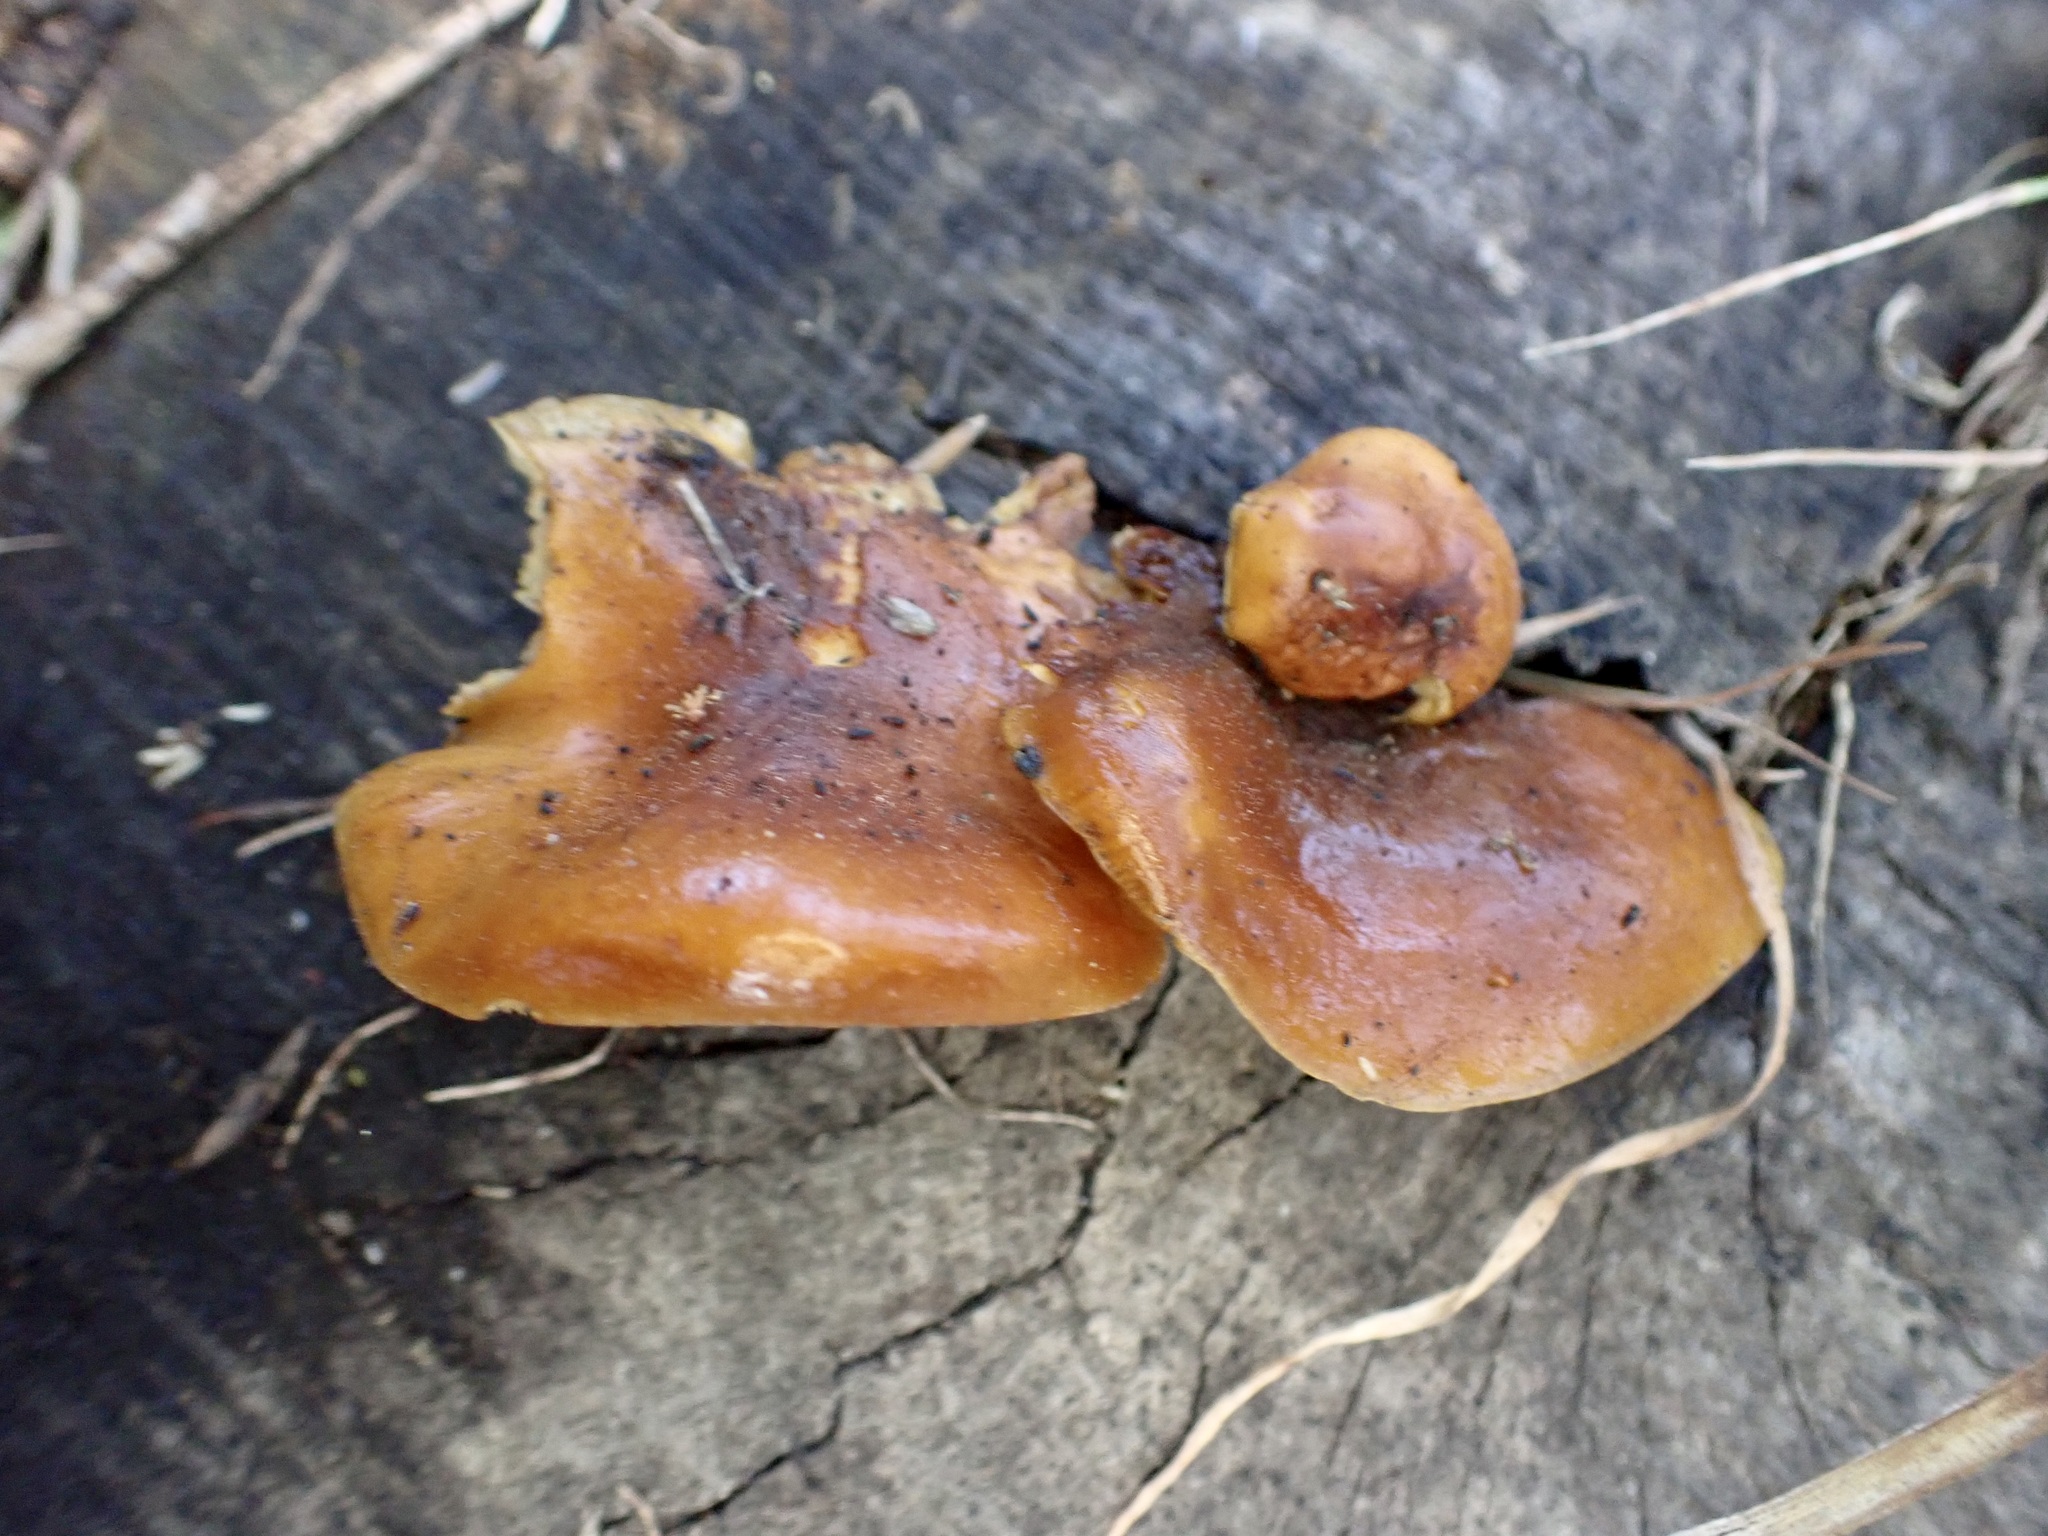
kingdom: Fungi
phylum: Basidiomycota
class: Agaricomycetes
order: Agaricales
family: Physalacriaceae
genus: Flammulina
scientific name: Flammulina velutipes
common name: Velvet shank
